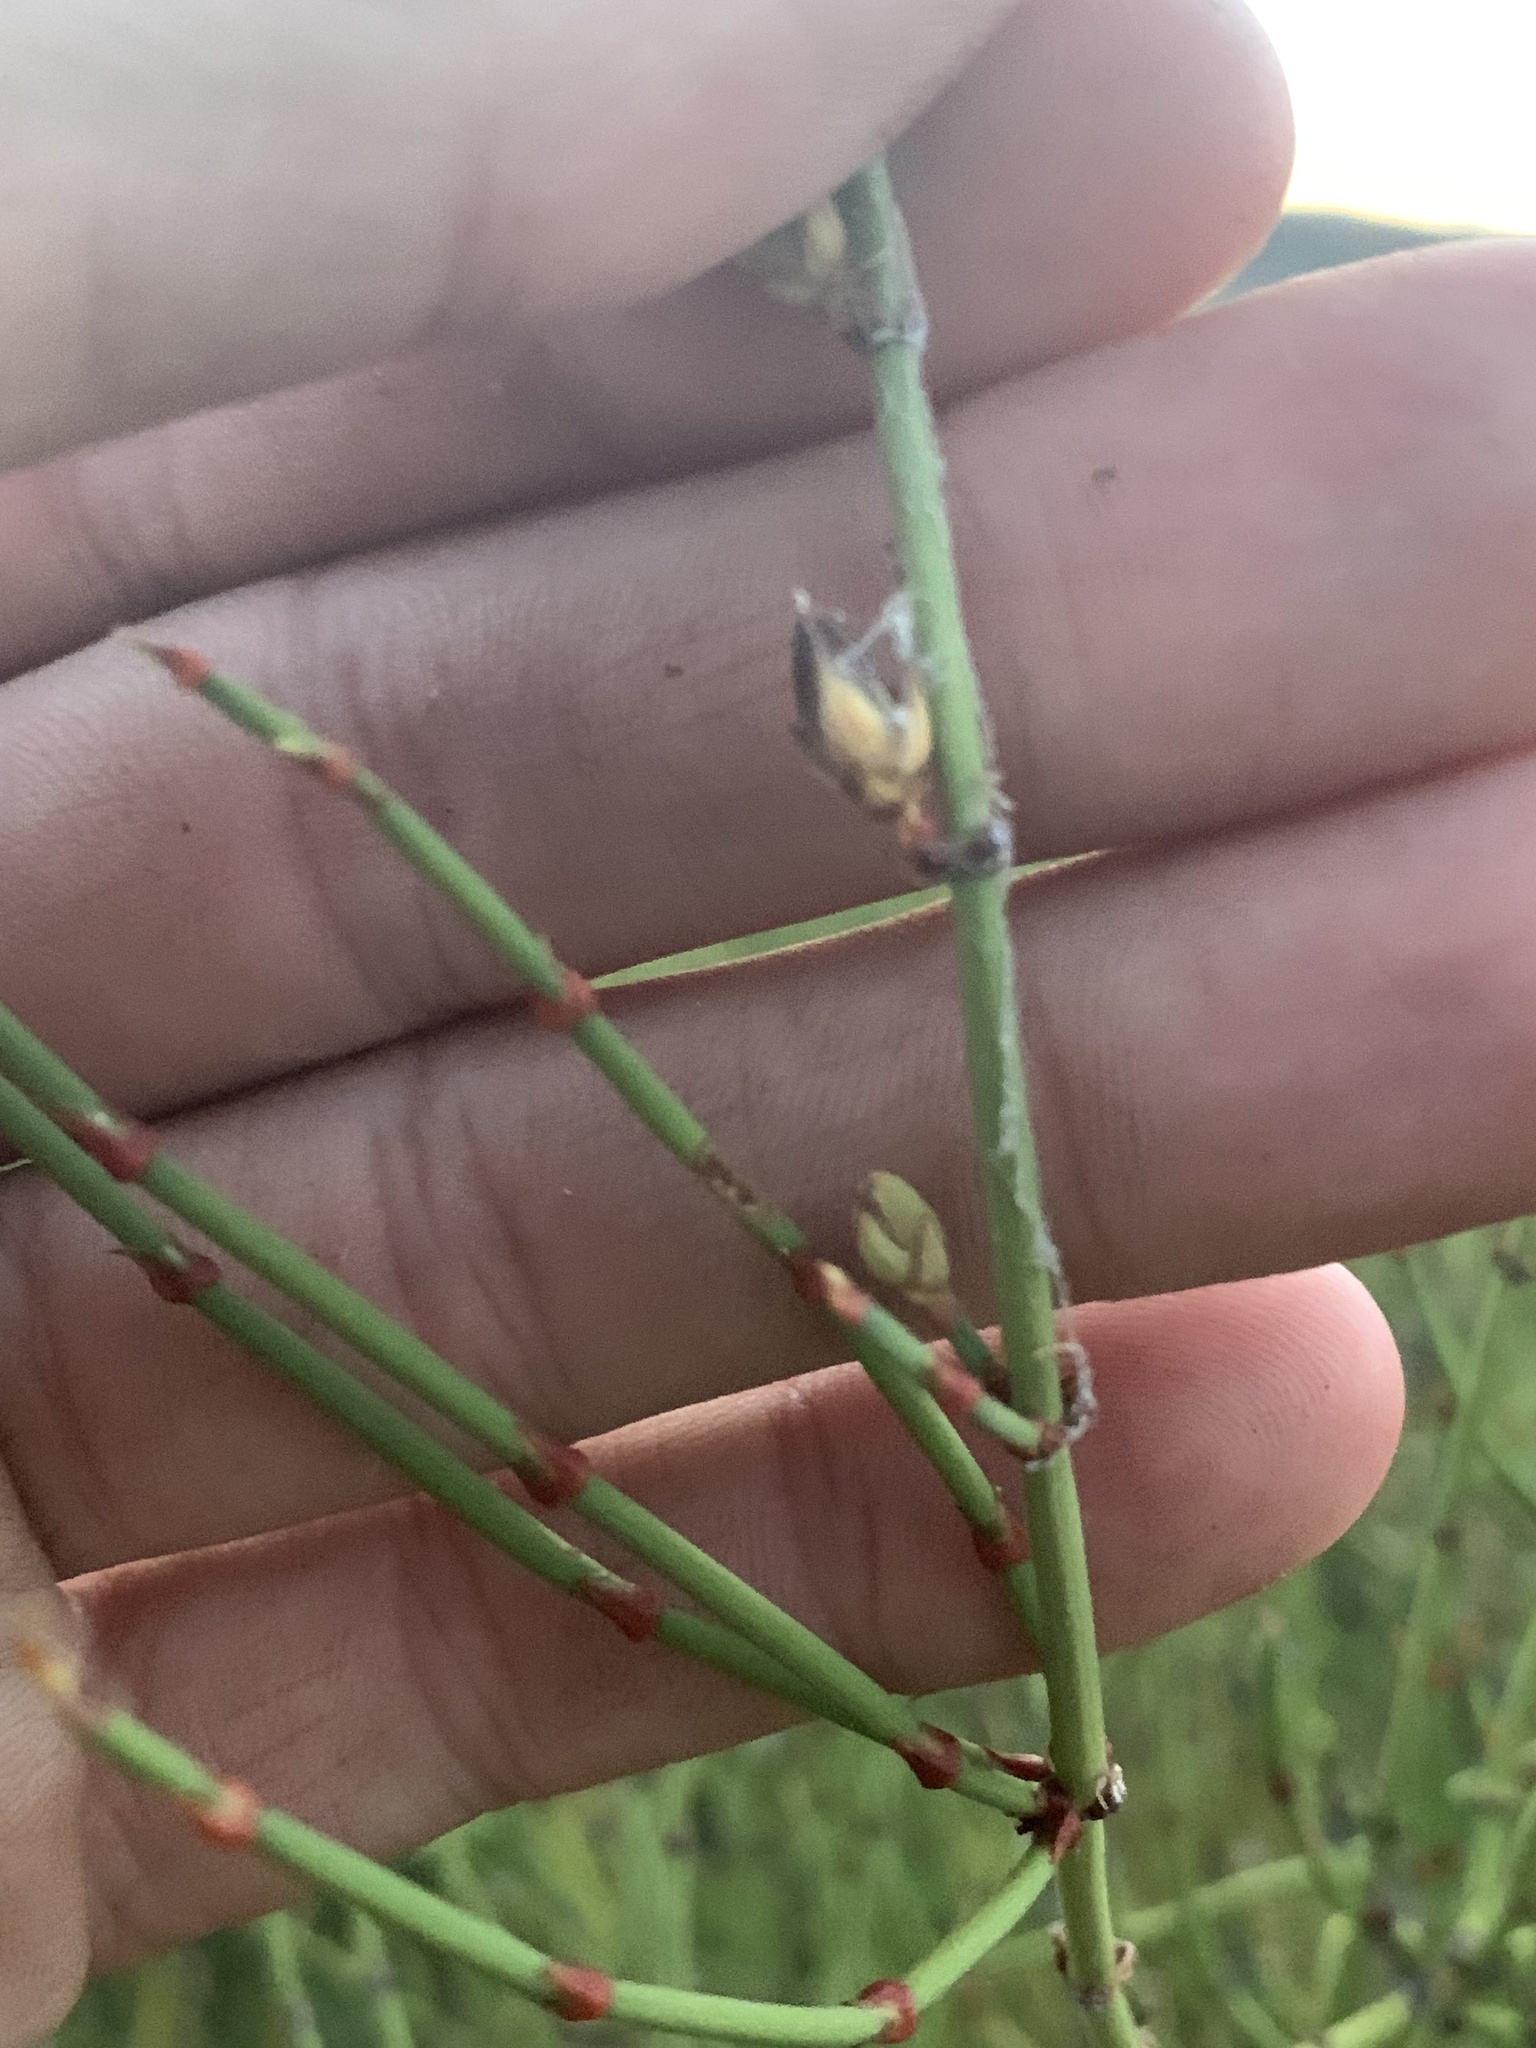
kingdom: Plantae
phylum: Tracheophyta
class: Gnetopsida
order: Ephedrales
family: Ephedraceae
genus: Ephedra
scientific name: Ephedra viridis
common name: Green ephedra
